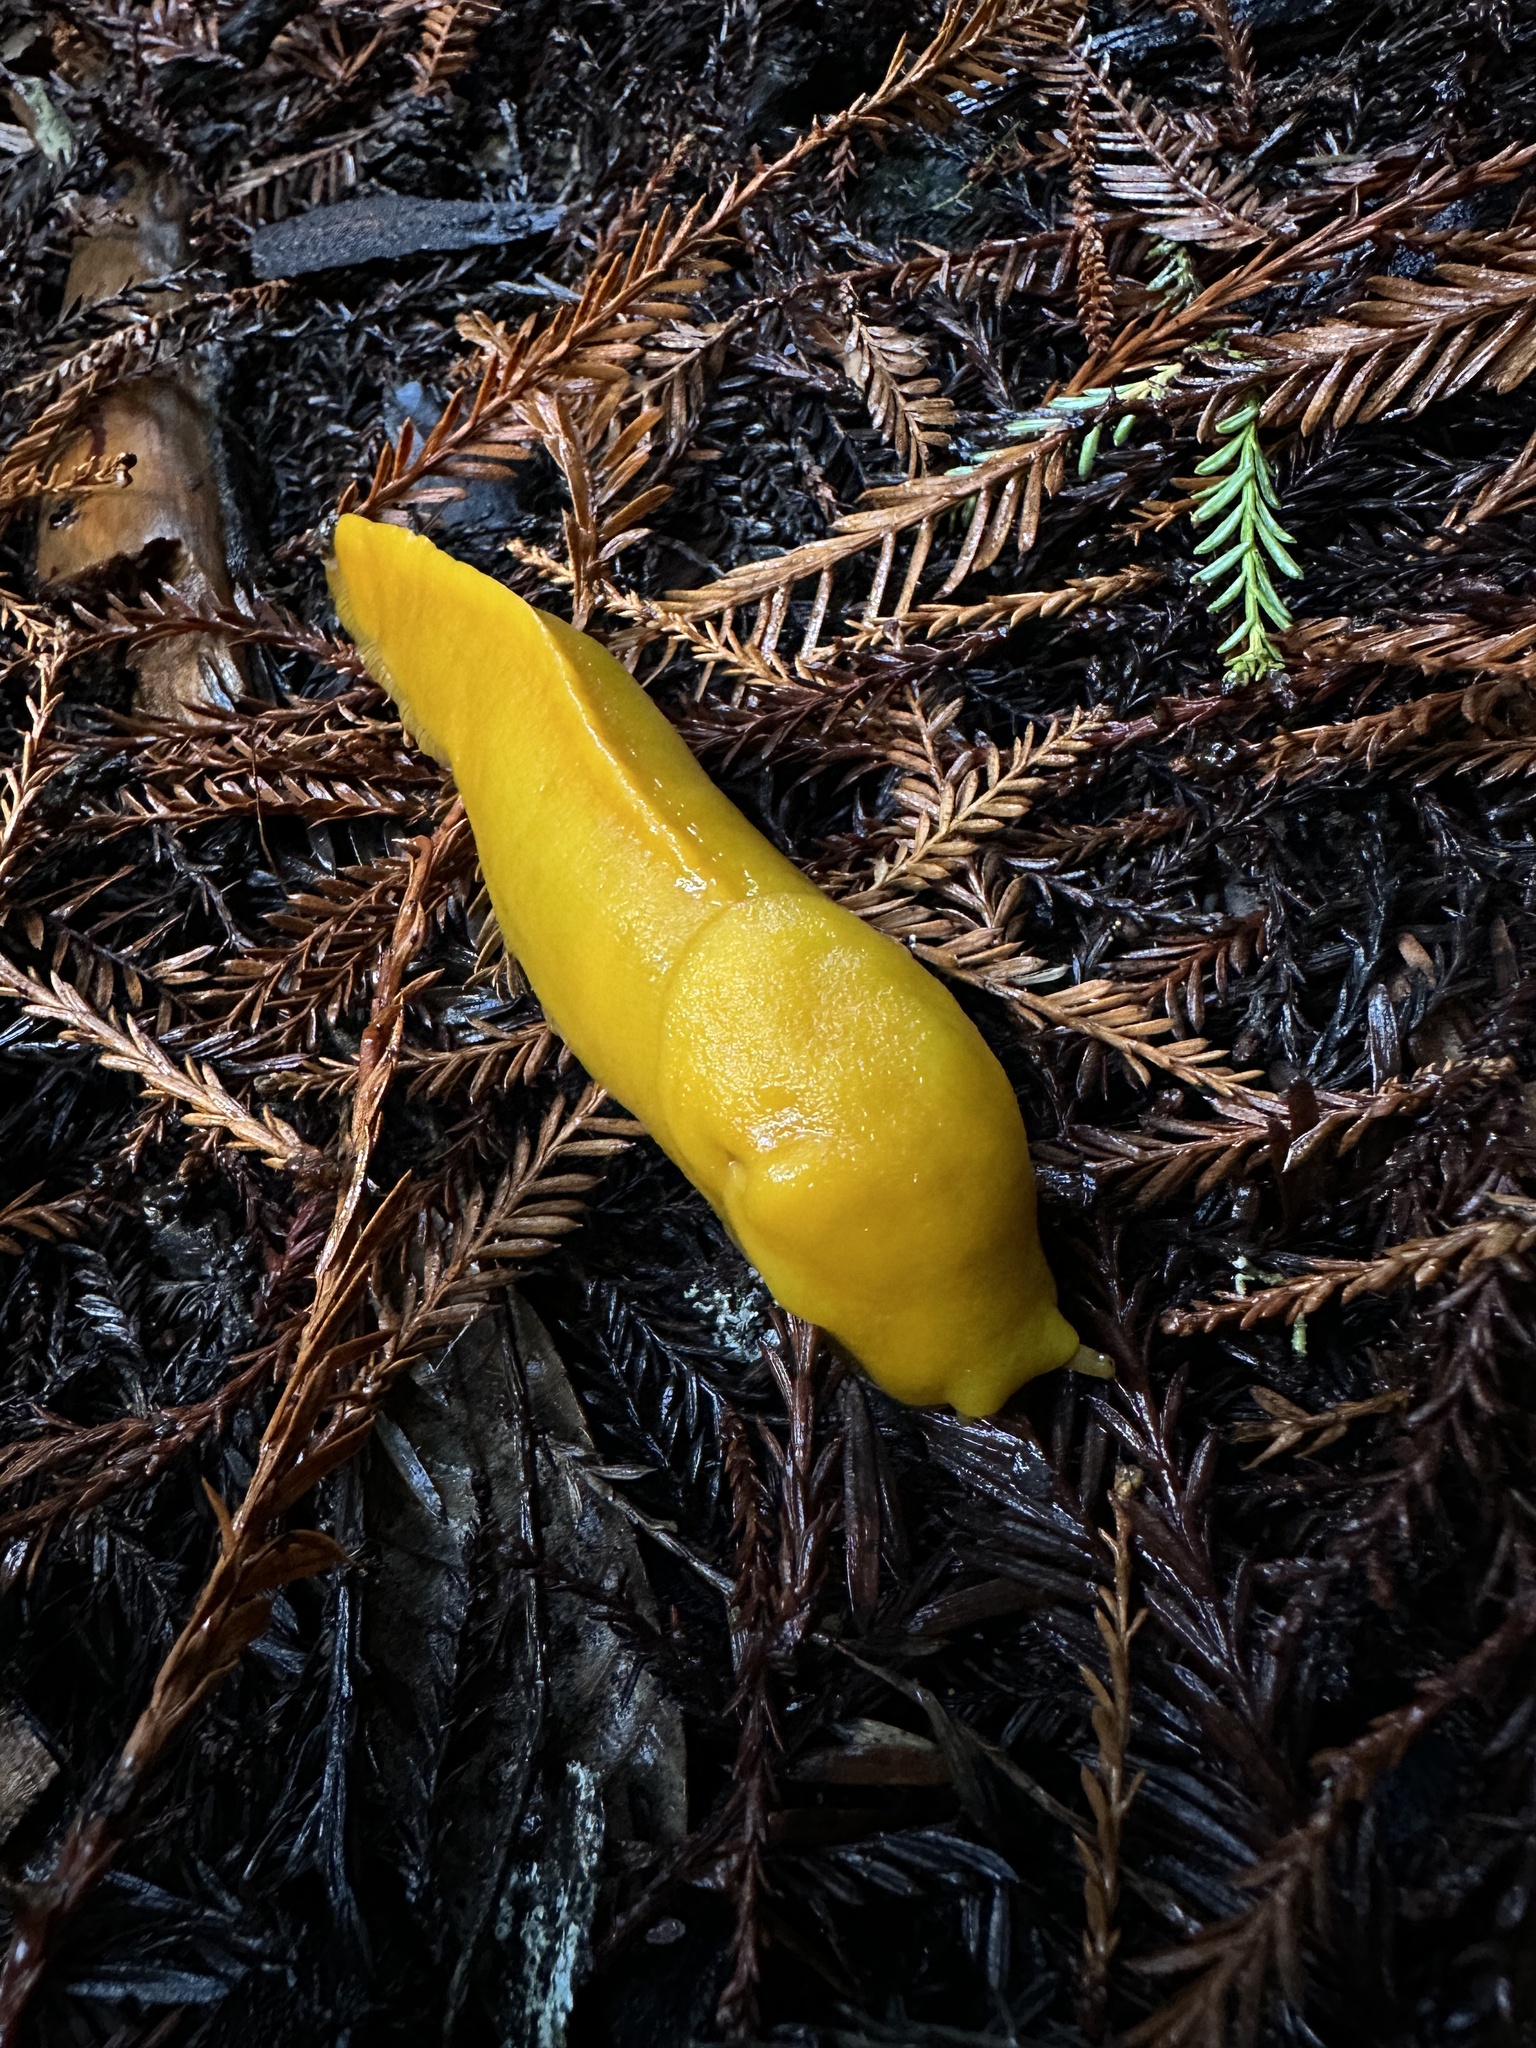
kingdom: Animalia
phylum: Mollusca
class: Gastropoda
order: Stylommatophora
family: Ariolimacidae
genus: Ariolimax
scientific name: Ariolimax californicus
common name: California banana slug
